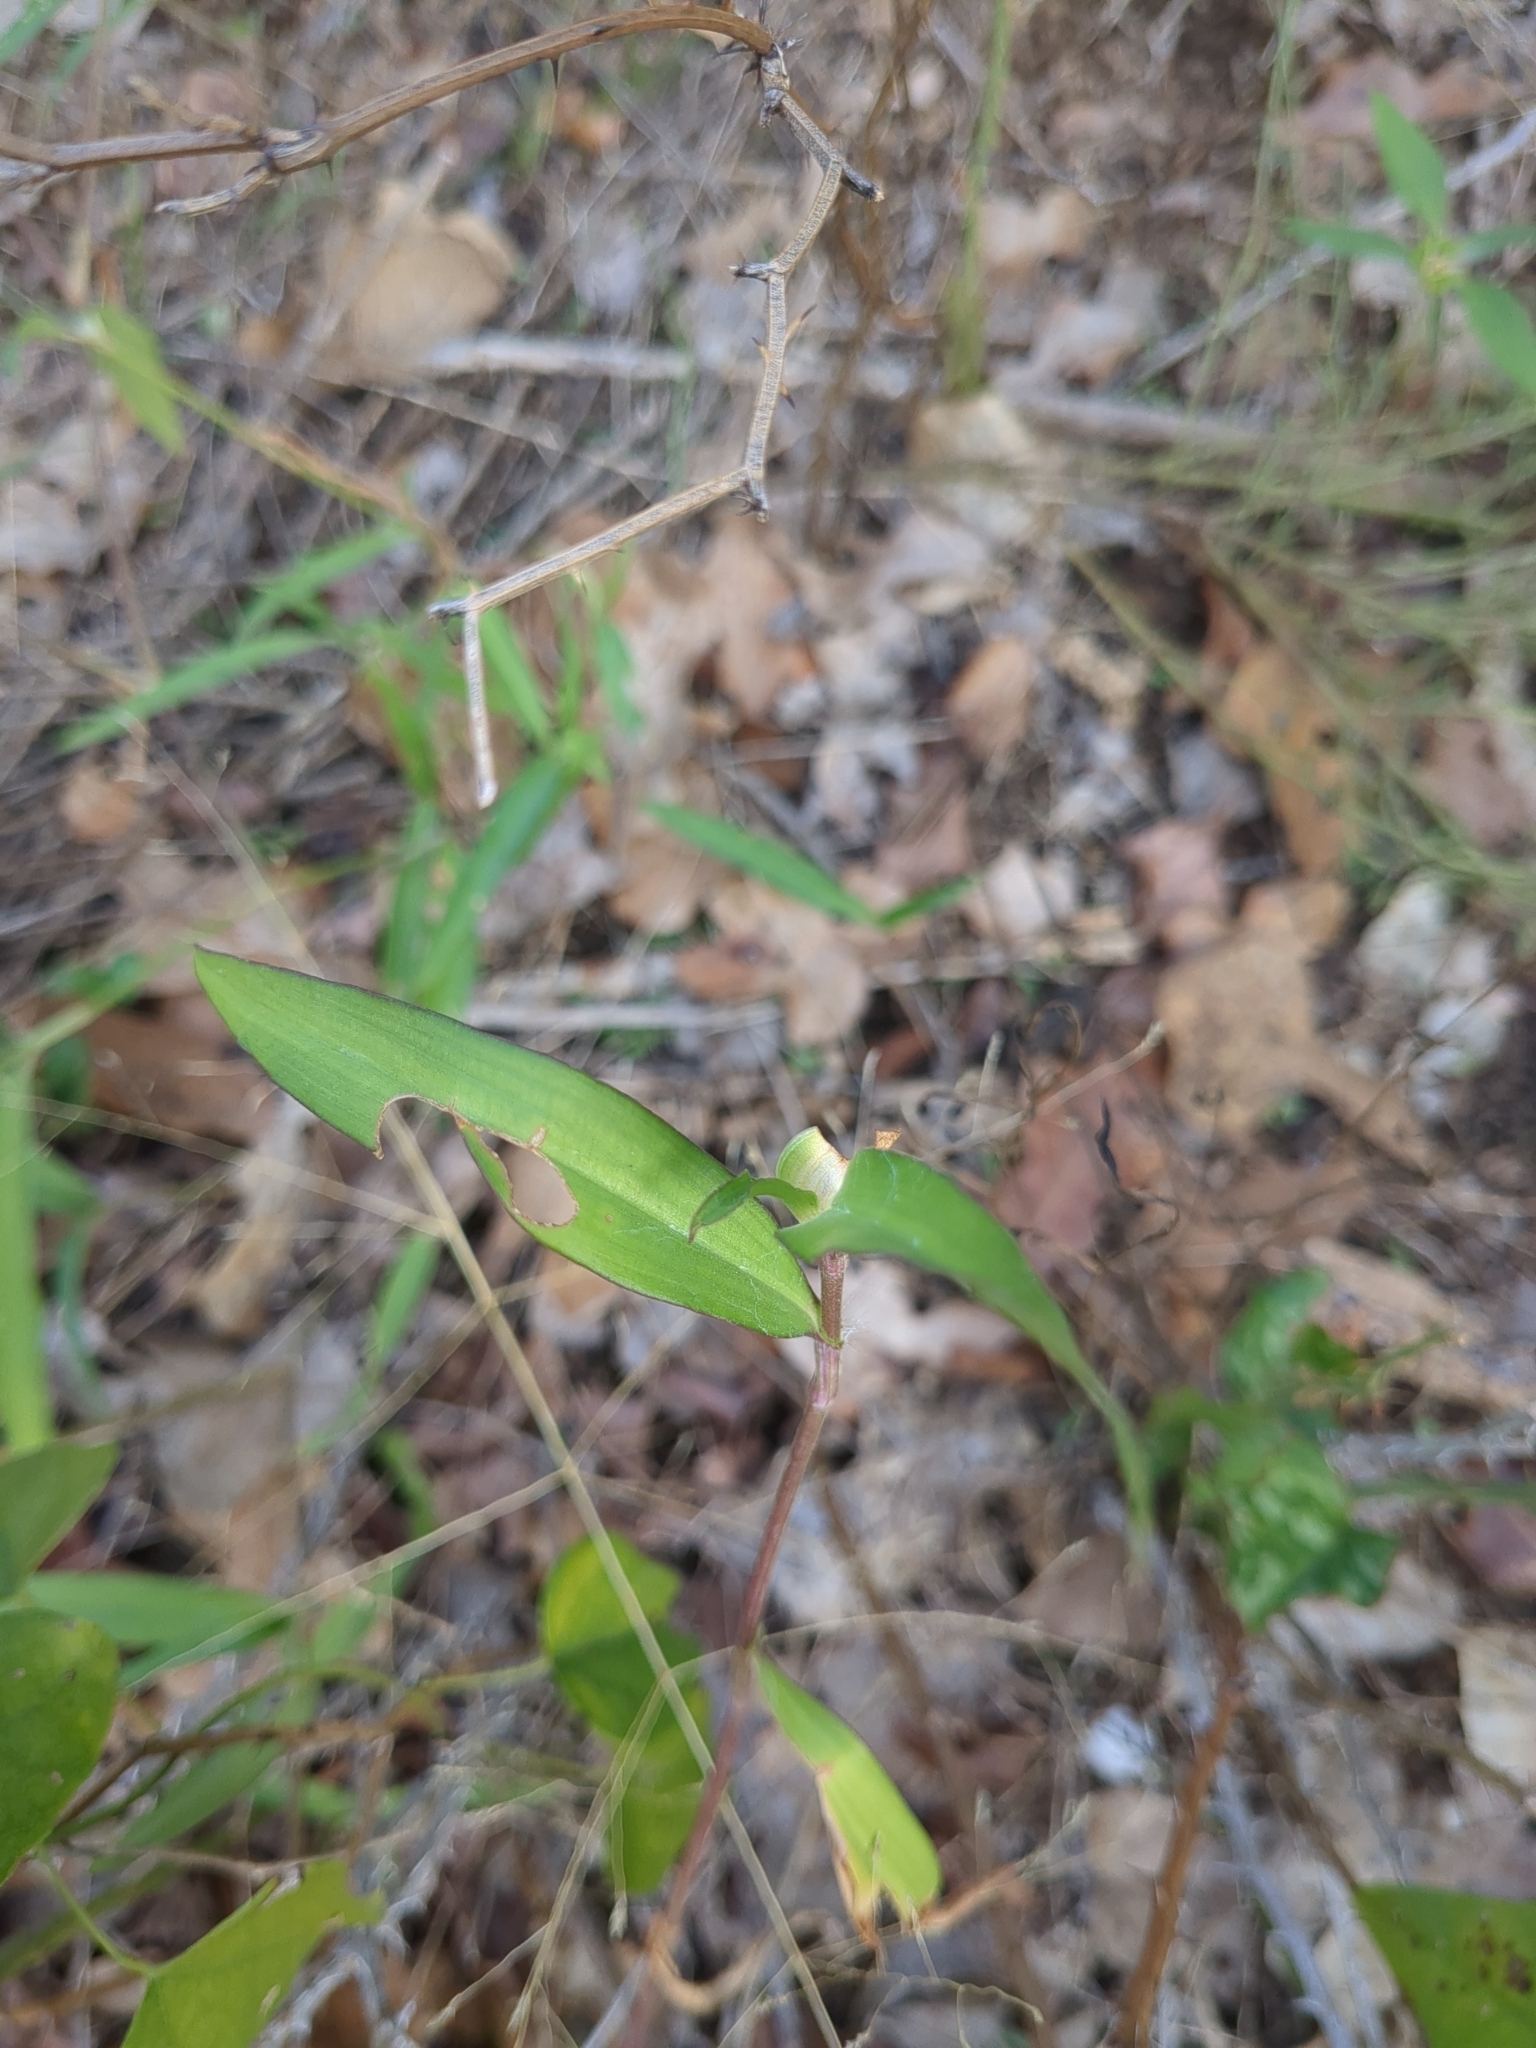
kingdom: Plantae
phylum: Tracheophyta
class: Liliopsida
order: Commelinales
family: Commelinaceae
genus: Commelina
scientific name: Commelina erecta
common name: Blousel blommetjie
